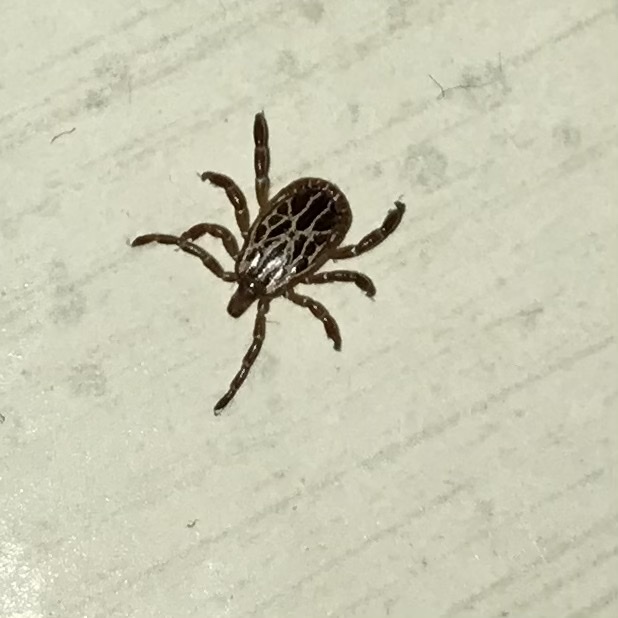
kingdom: Animalia
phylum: Arthropoda
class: Arachnida
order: Ixodida
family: Ixodidae
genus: Amblyomma
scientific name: Amblyomma maculatum
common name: Gulf coast tick
